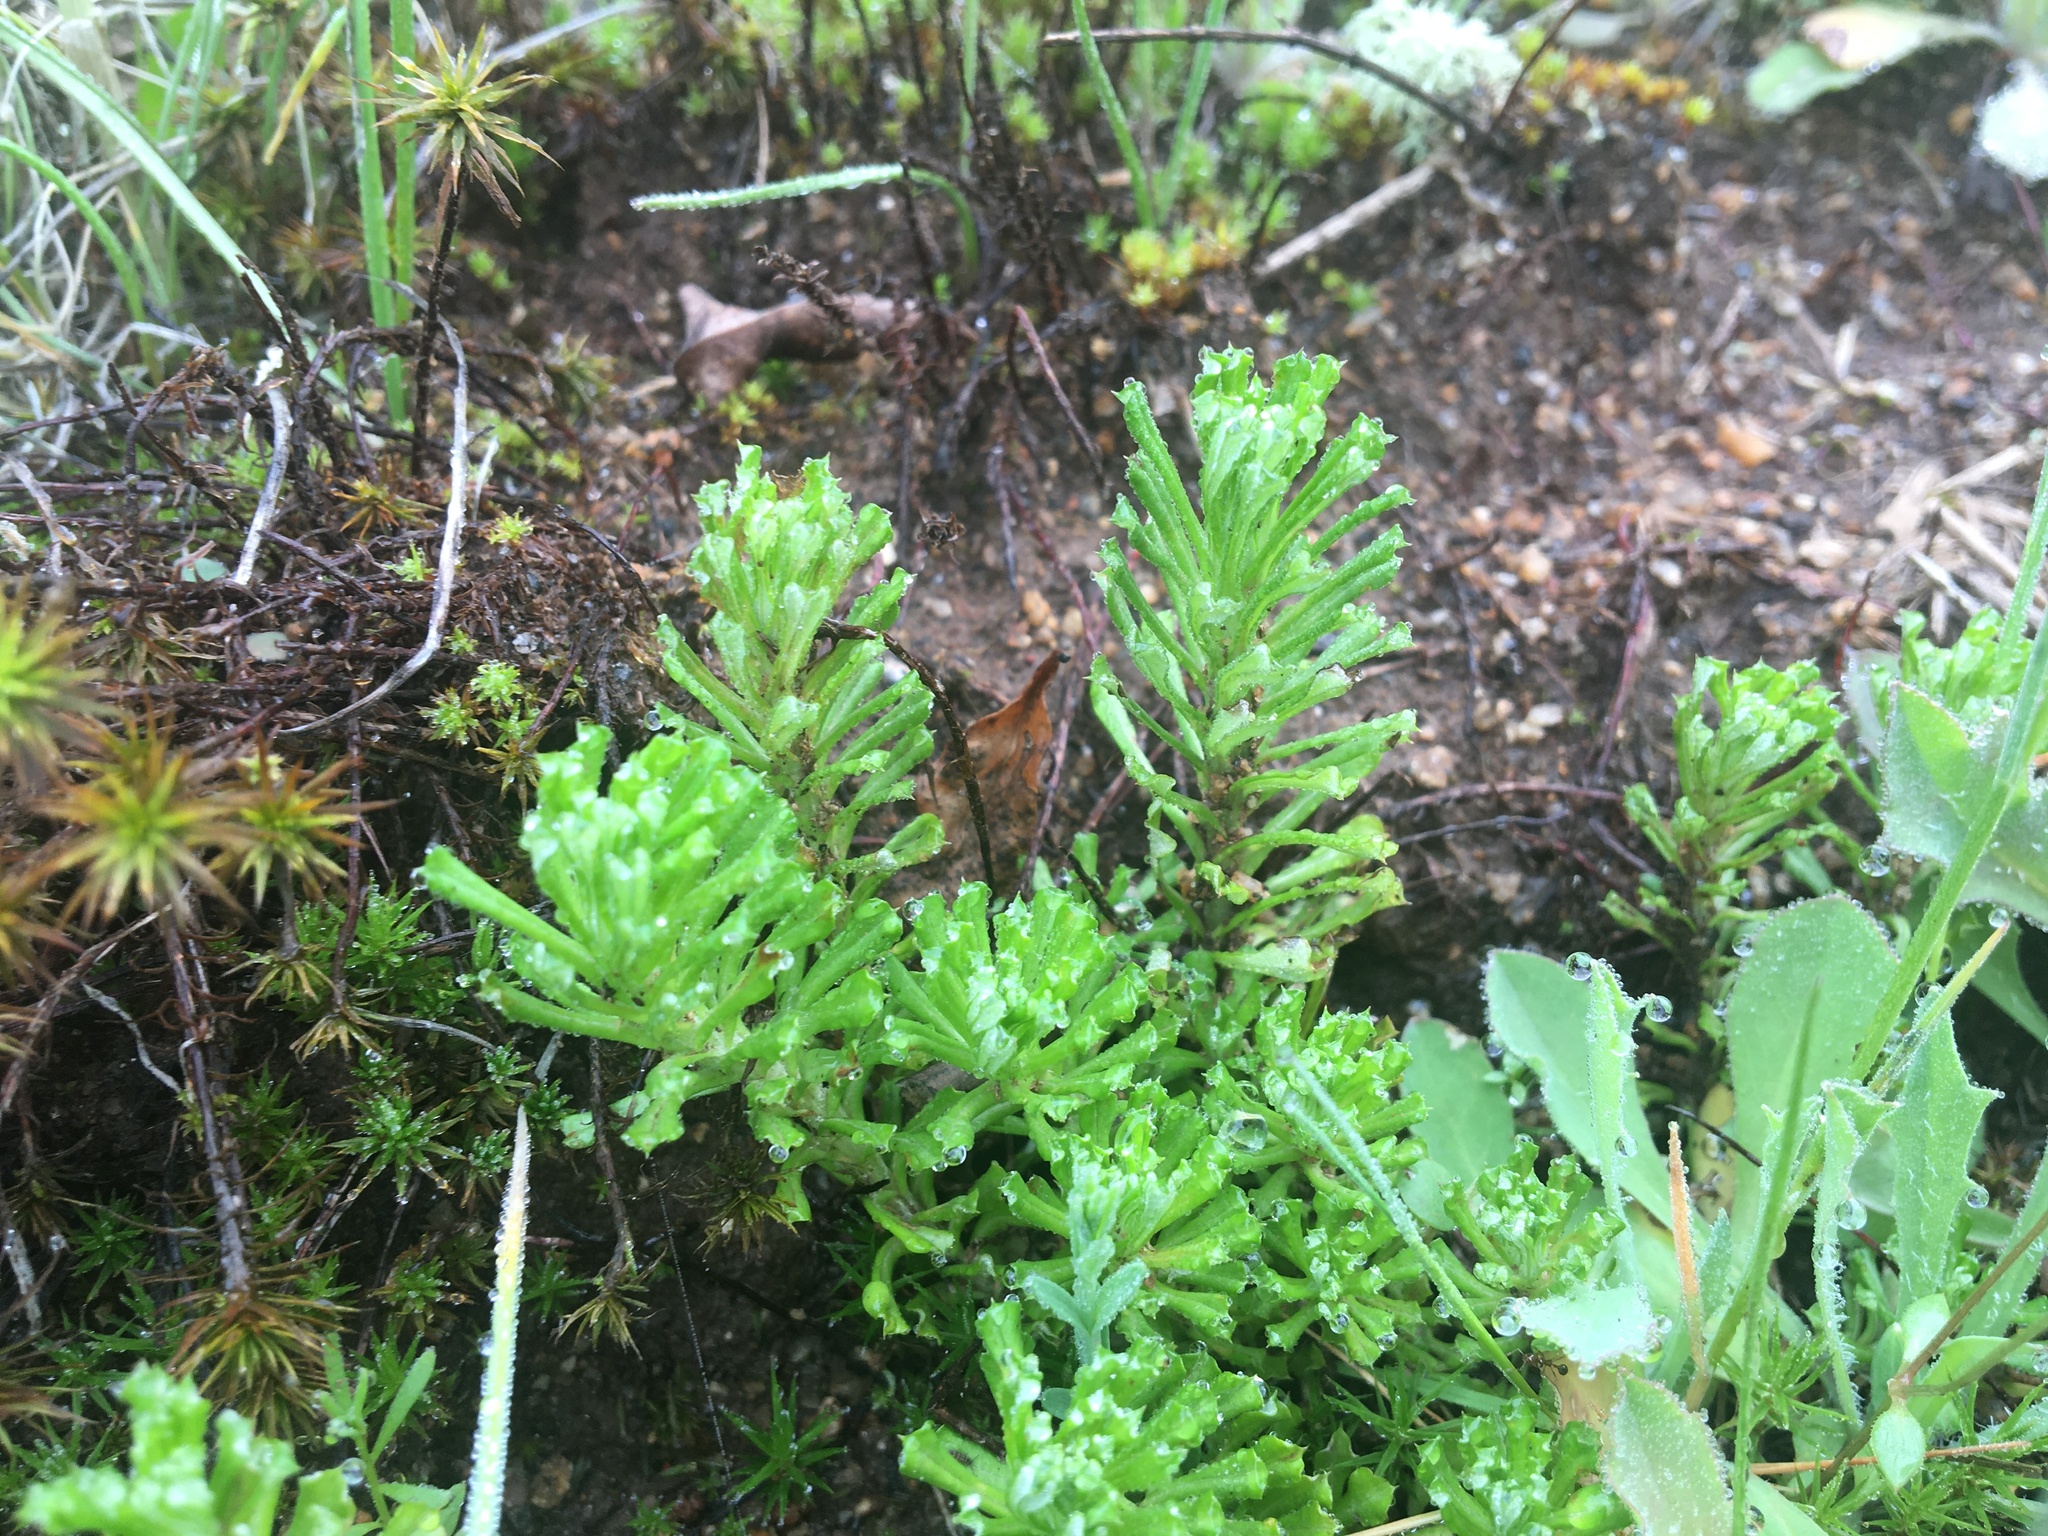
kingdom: Plantae
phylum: Tracheophyta
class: Magnoliopsida
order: Asterales
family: Asteraceae
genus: Facelis
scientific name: Facelis retusa
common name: Annual trampweed
